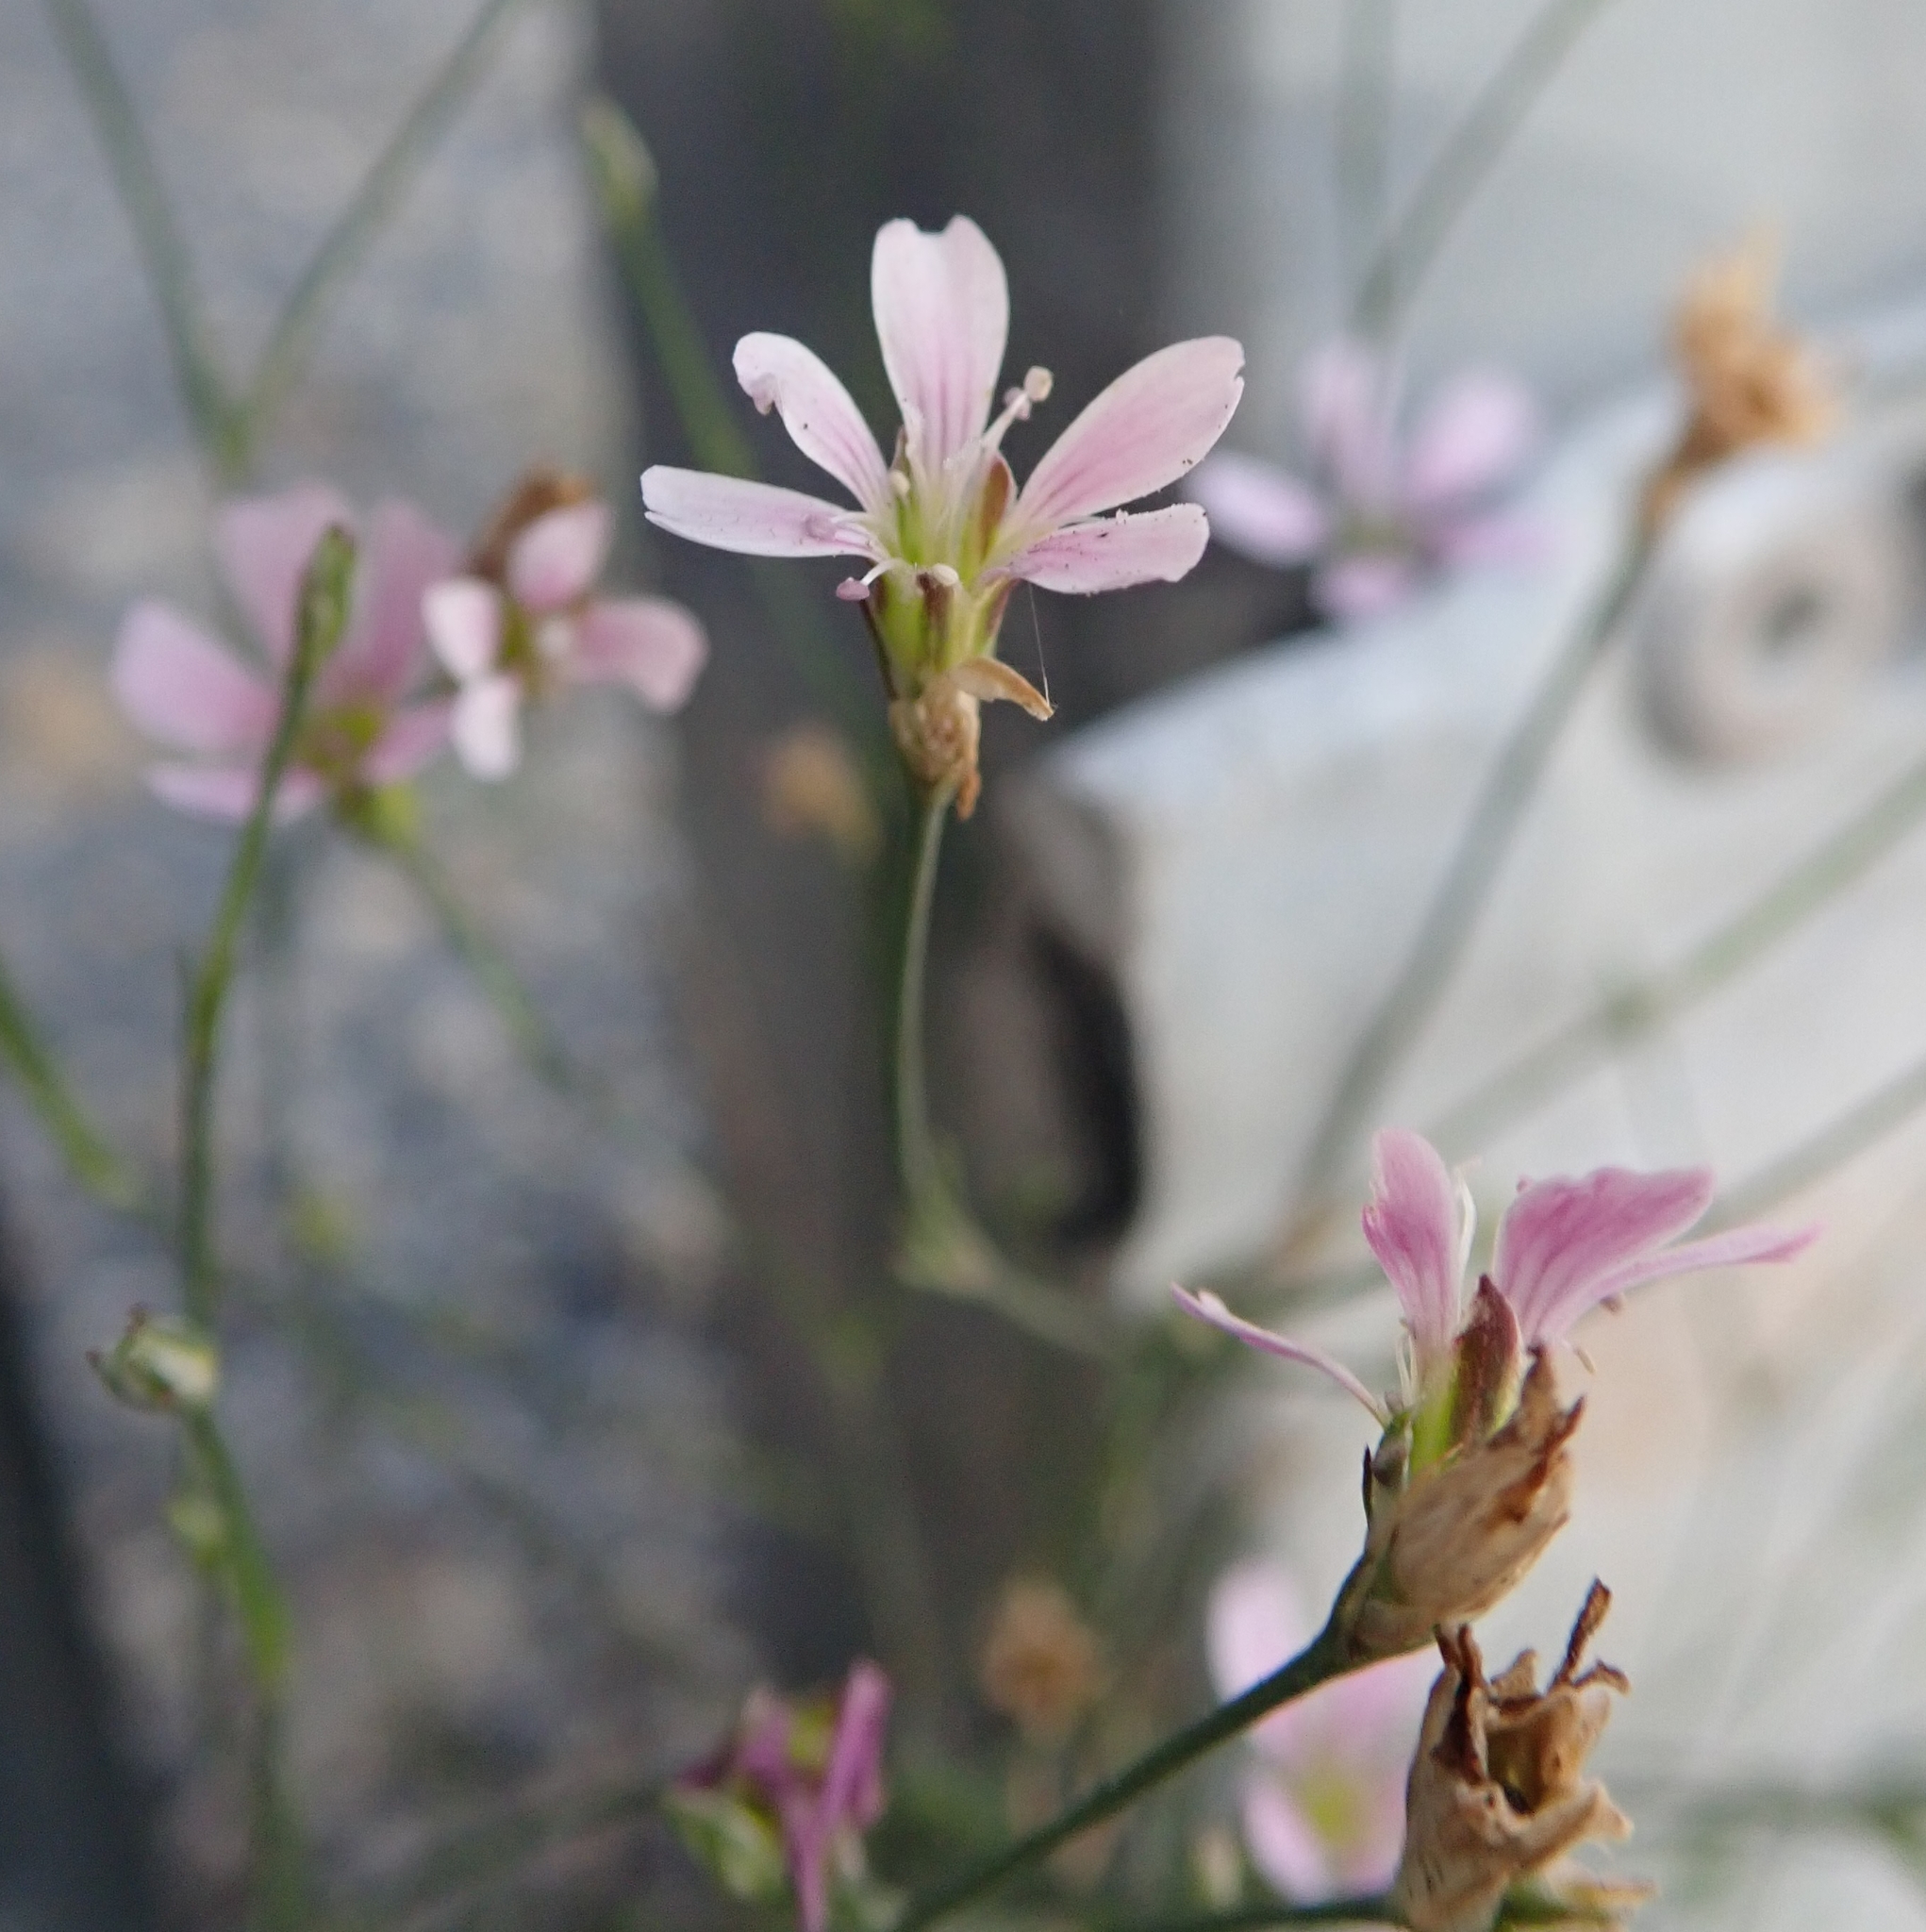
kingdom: Plantae
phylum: Tracheophyta
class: Magnoliopsida
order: Caryophyllales
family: Caryophyllaceae
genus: Petrorhagia
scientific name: Petrorhagia saxifraga
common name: Tunicflower
